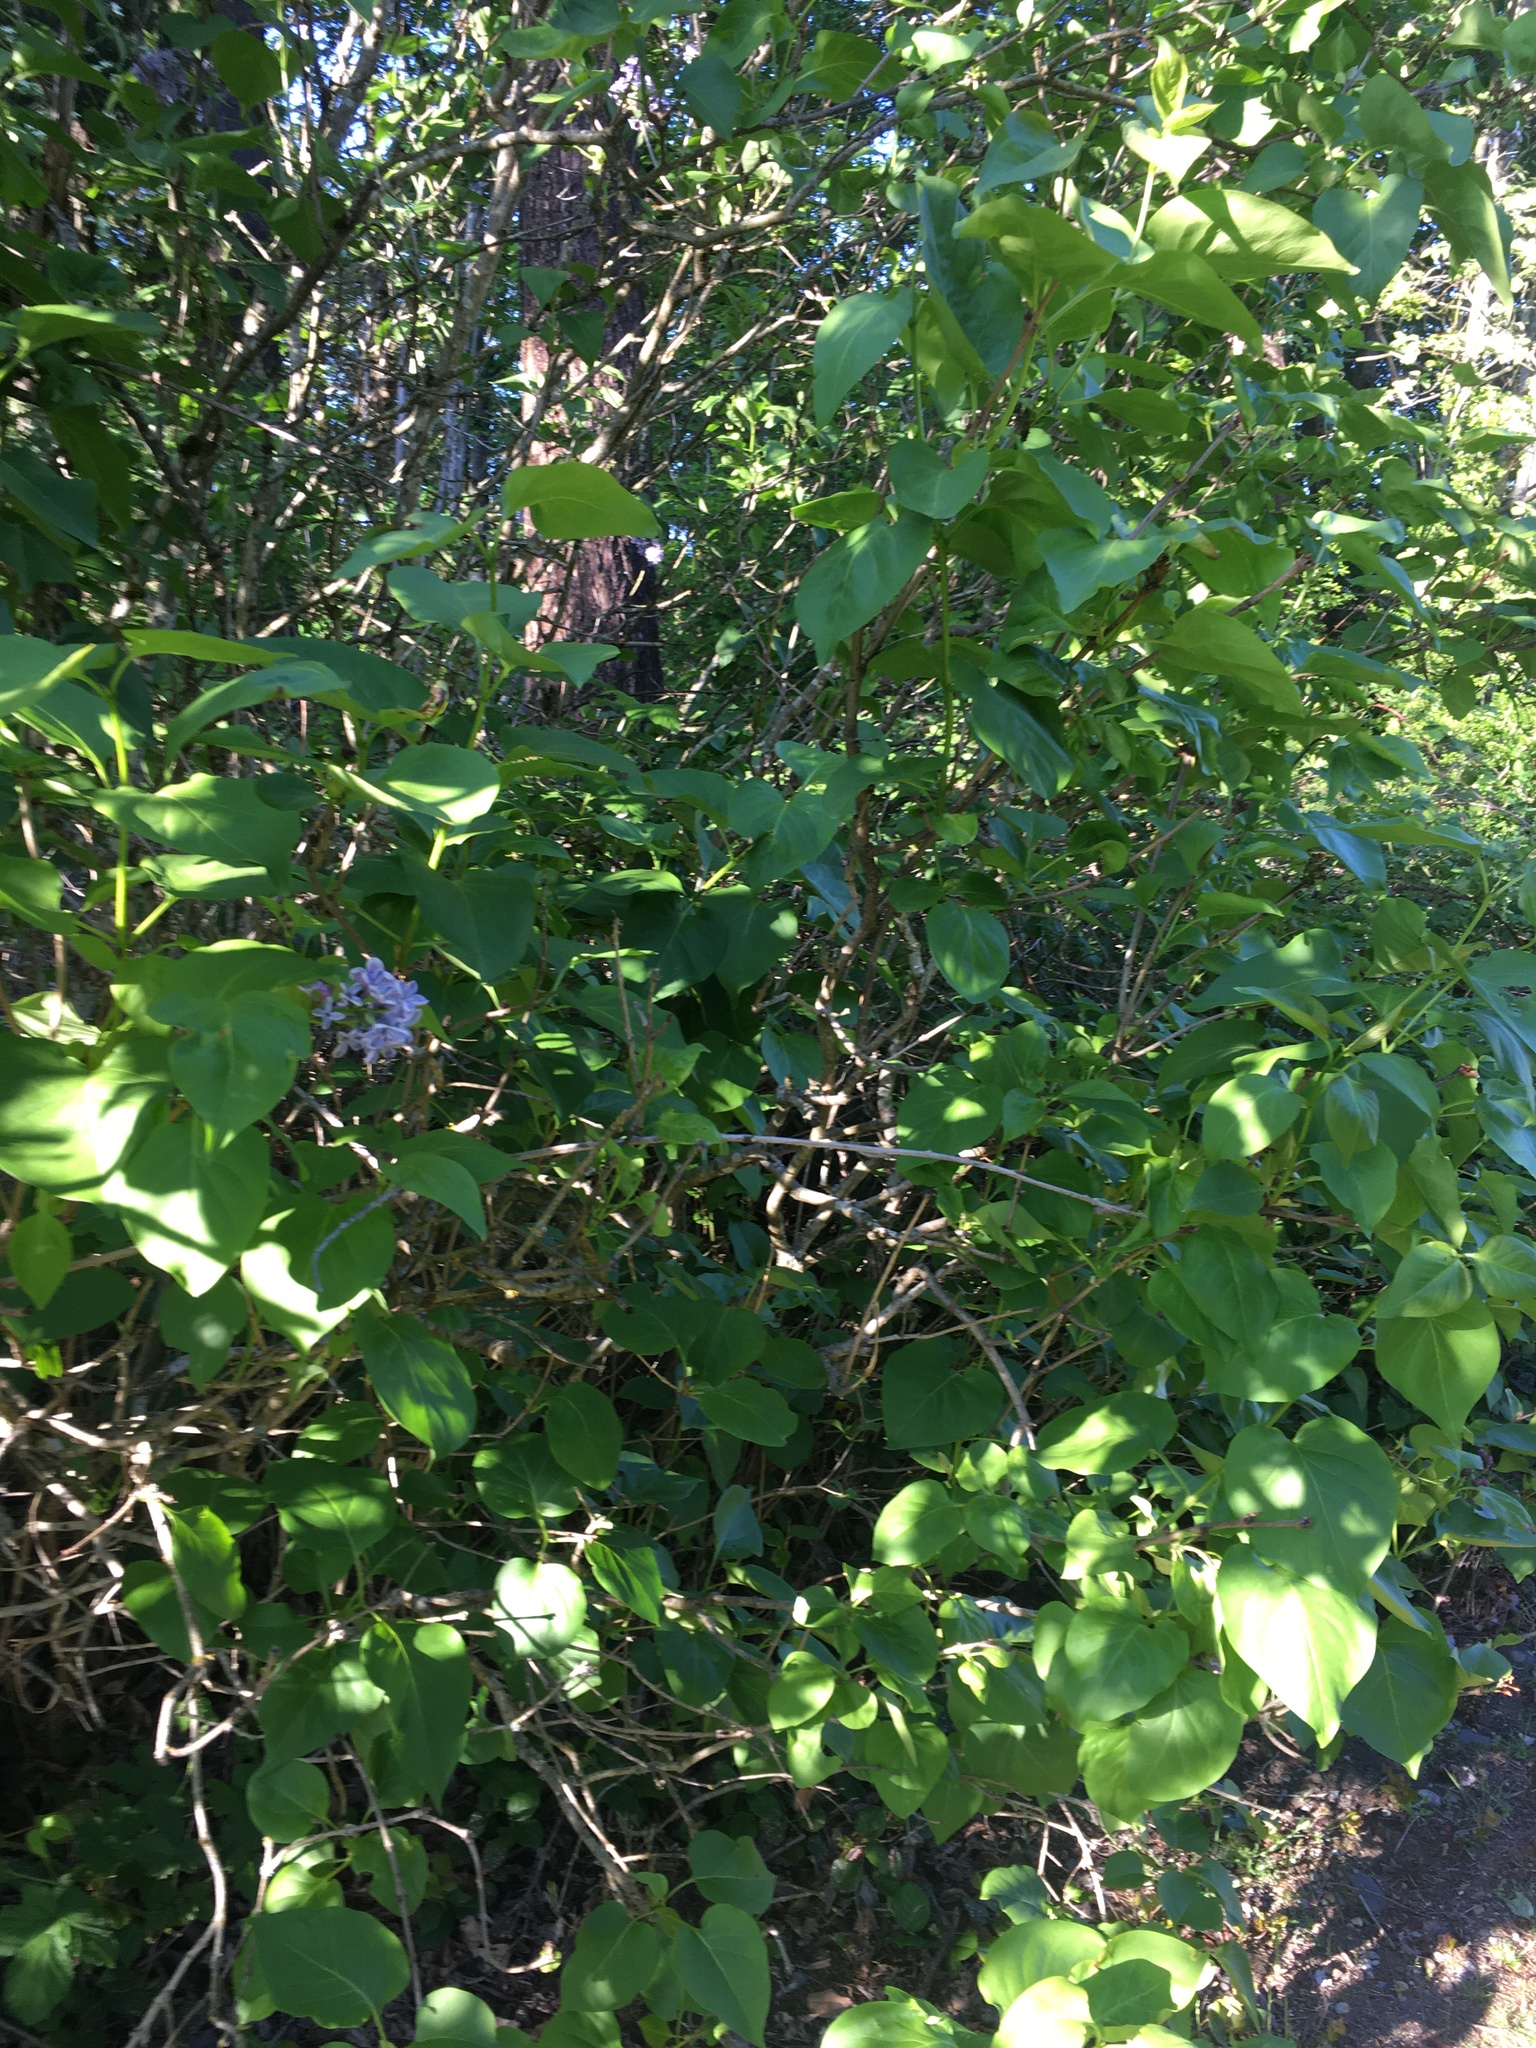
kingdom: Plantae
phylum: Tracheophyta
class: Magnoliopsida
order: Lamiales
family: Oleaceae
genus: Syringa
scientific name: Syringa vulgaris
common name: Common lilac
